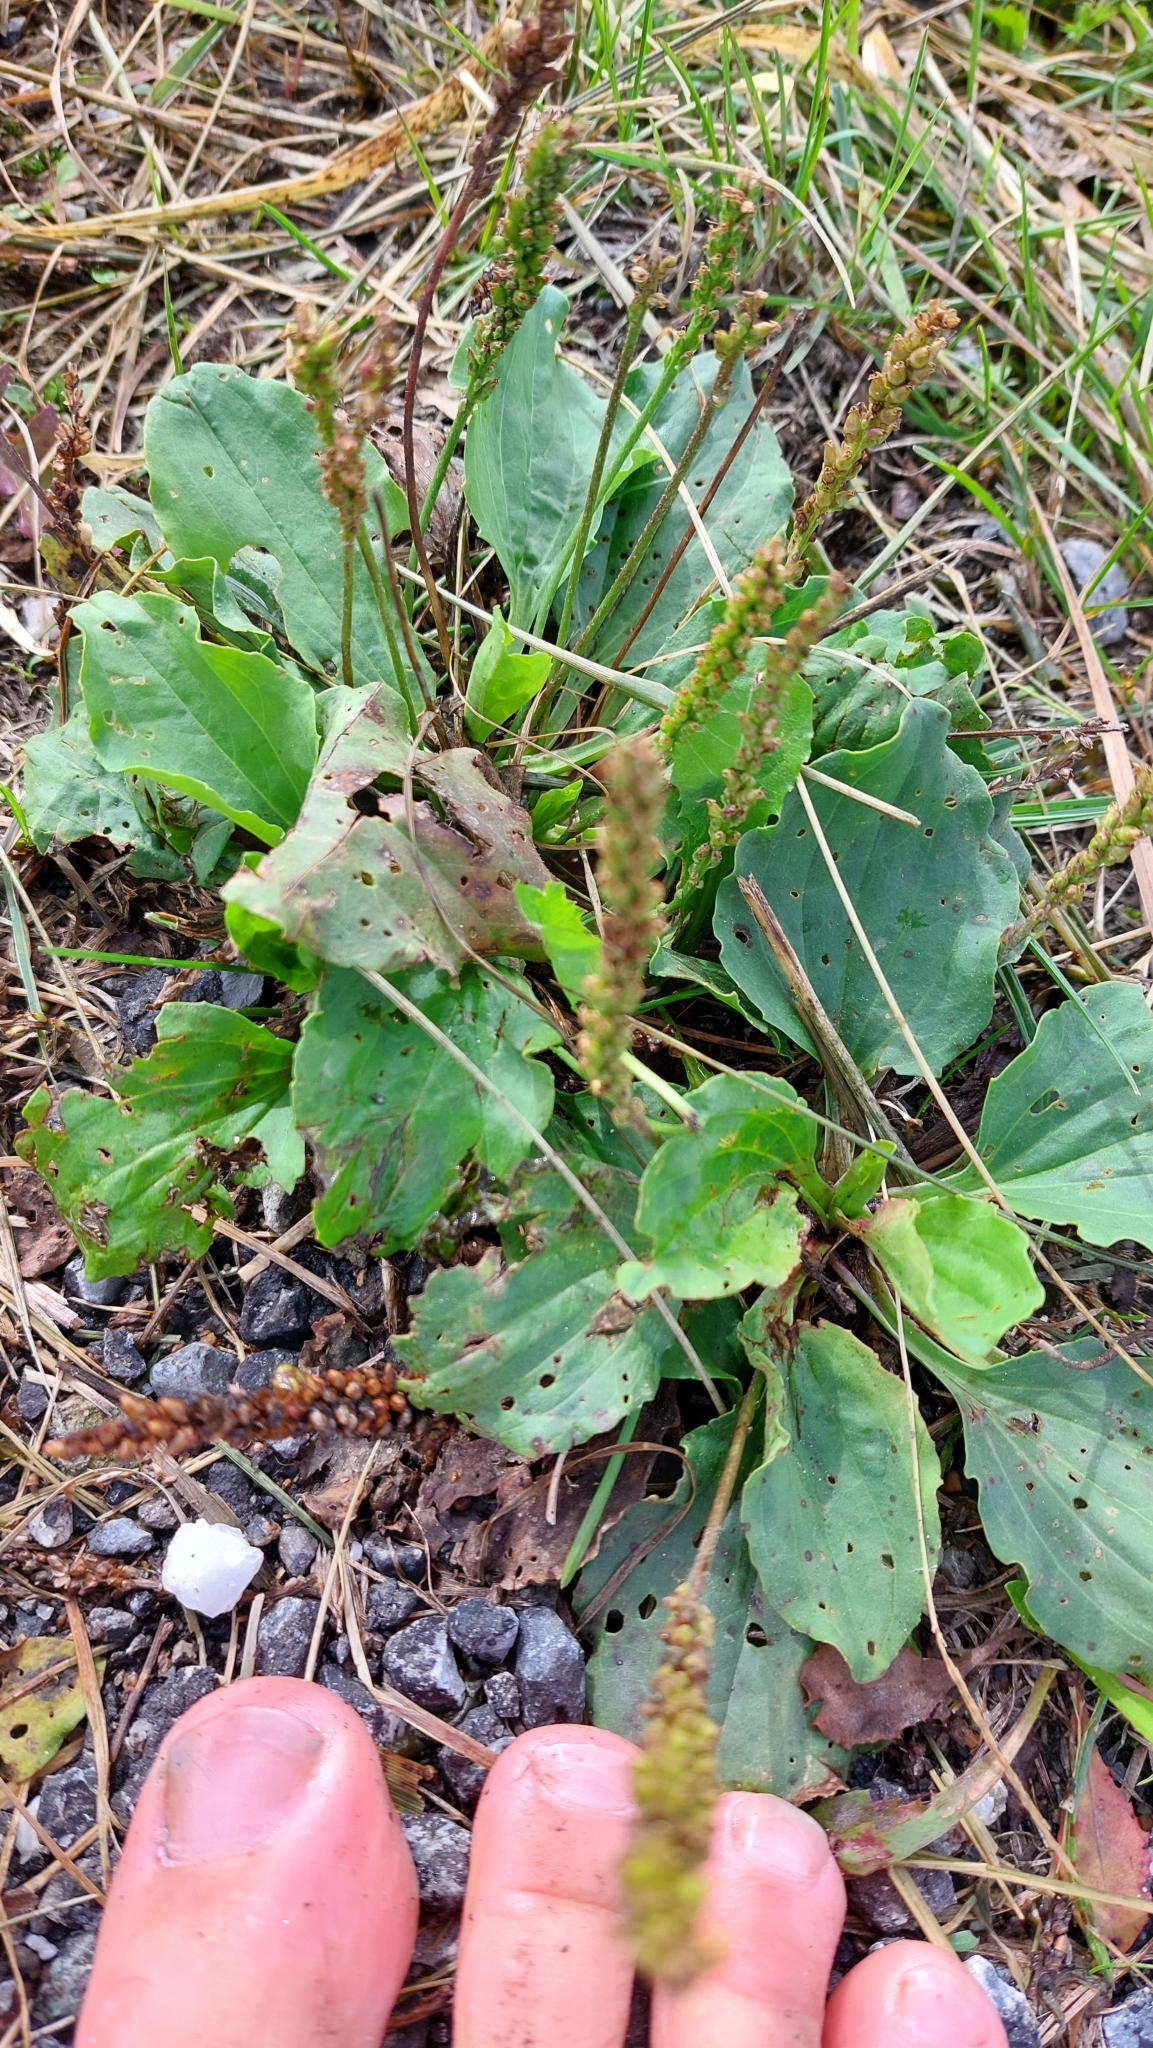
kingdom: Plantae
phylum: Tracheophyta
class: Magnoliopsida
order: Lamiales
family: Plantaginaceae
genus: Plantago
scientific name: Plantago major
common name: Common plantain
